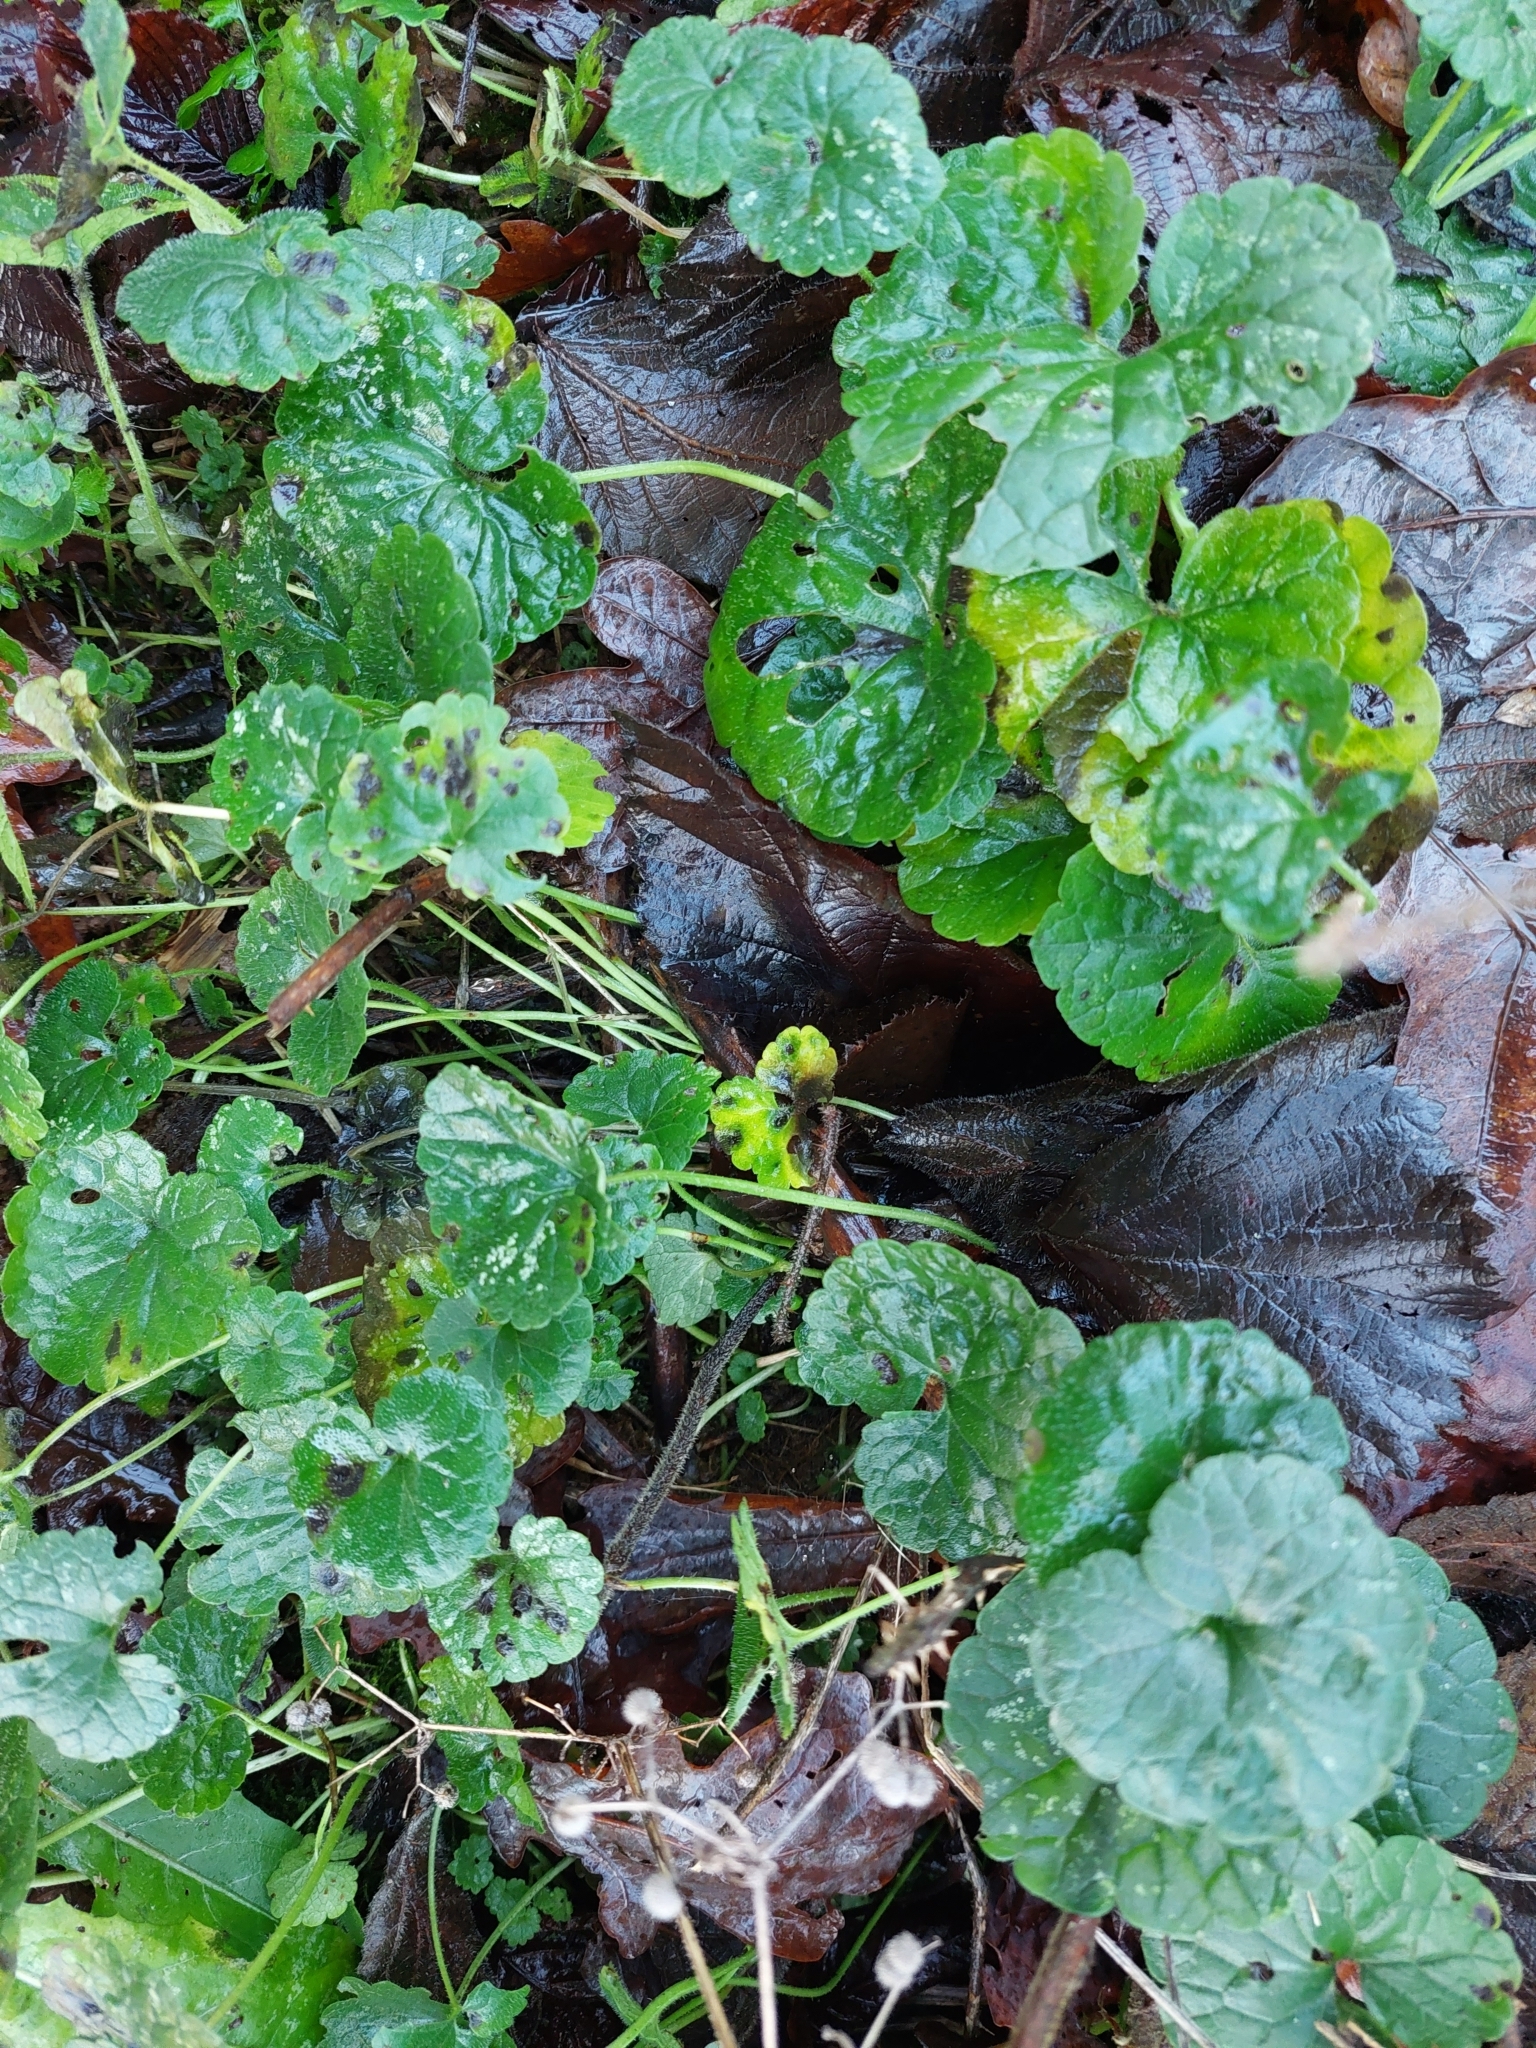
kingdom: Plantae
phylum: Tracheophyta
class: Magnoliopsida
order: Lamiales
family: Lamiaceae
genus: Glechoma
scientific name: Glechoma hederacea
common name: Ground ivy
